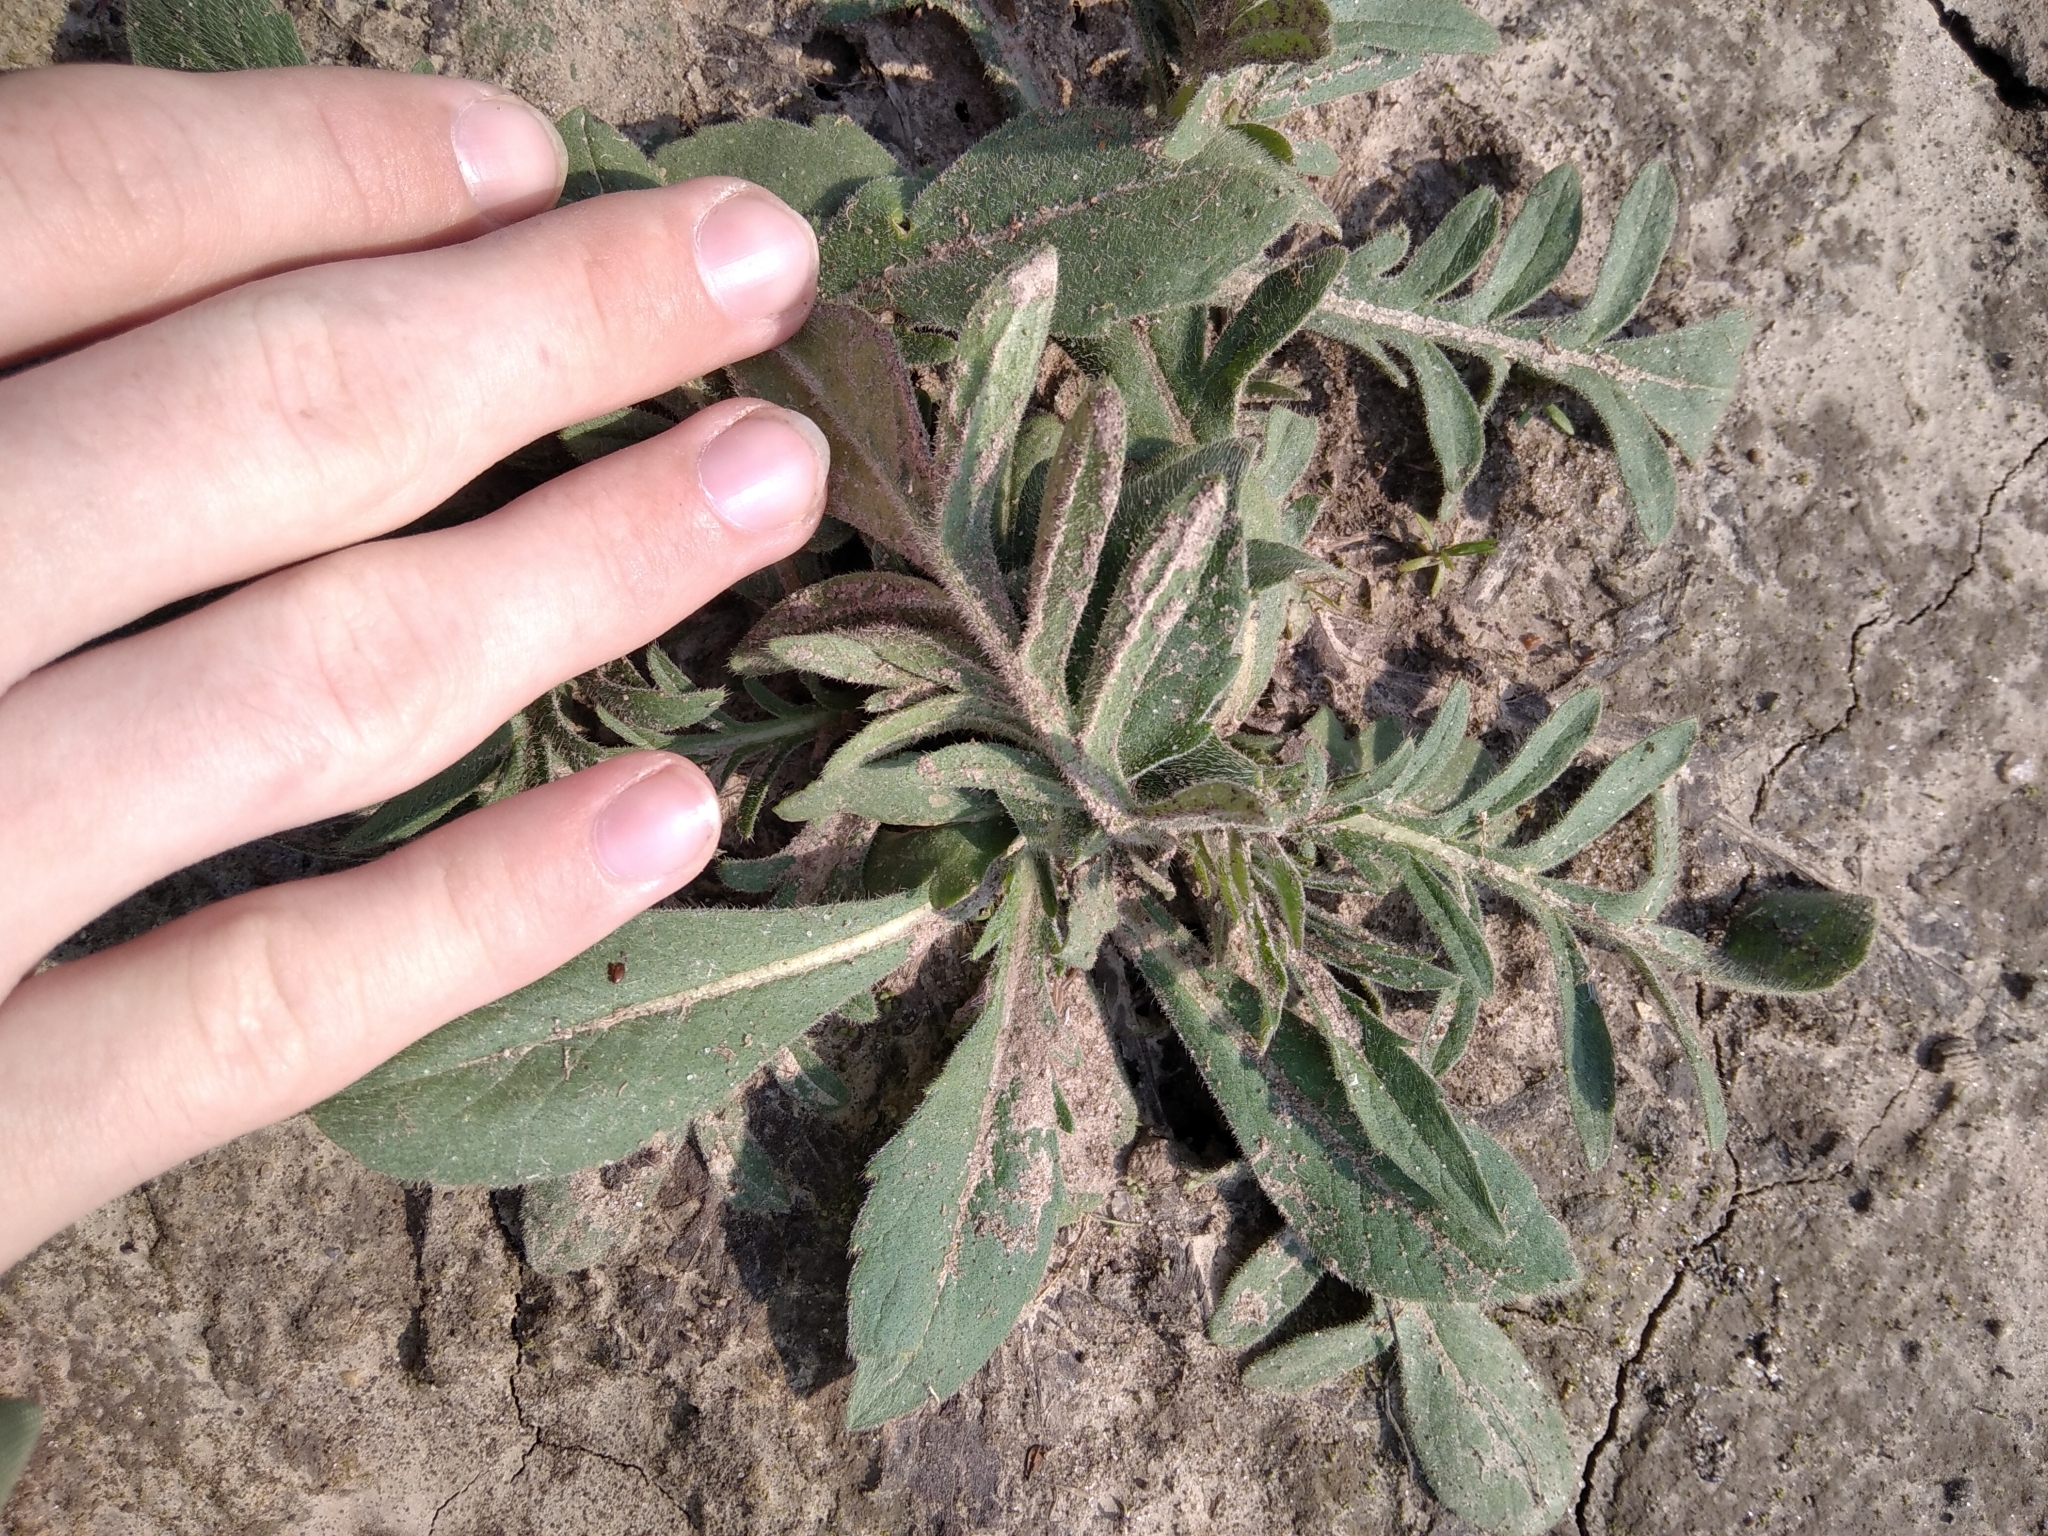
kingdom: Plantae
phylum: Tracheophyta
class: Magnoliopsida
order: Dipsacales
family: Caprifoliaceae
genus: Knautia
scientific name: Knautia arvensis
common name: Field scabiosa
